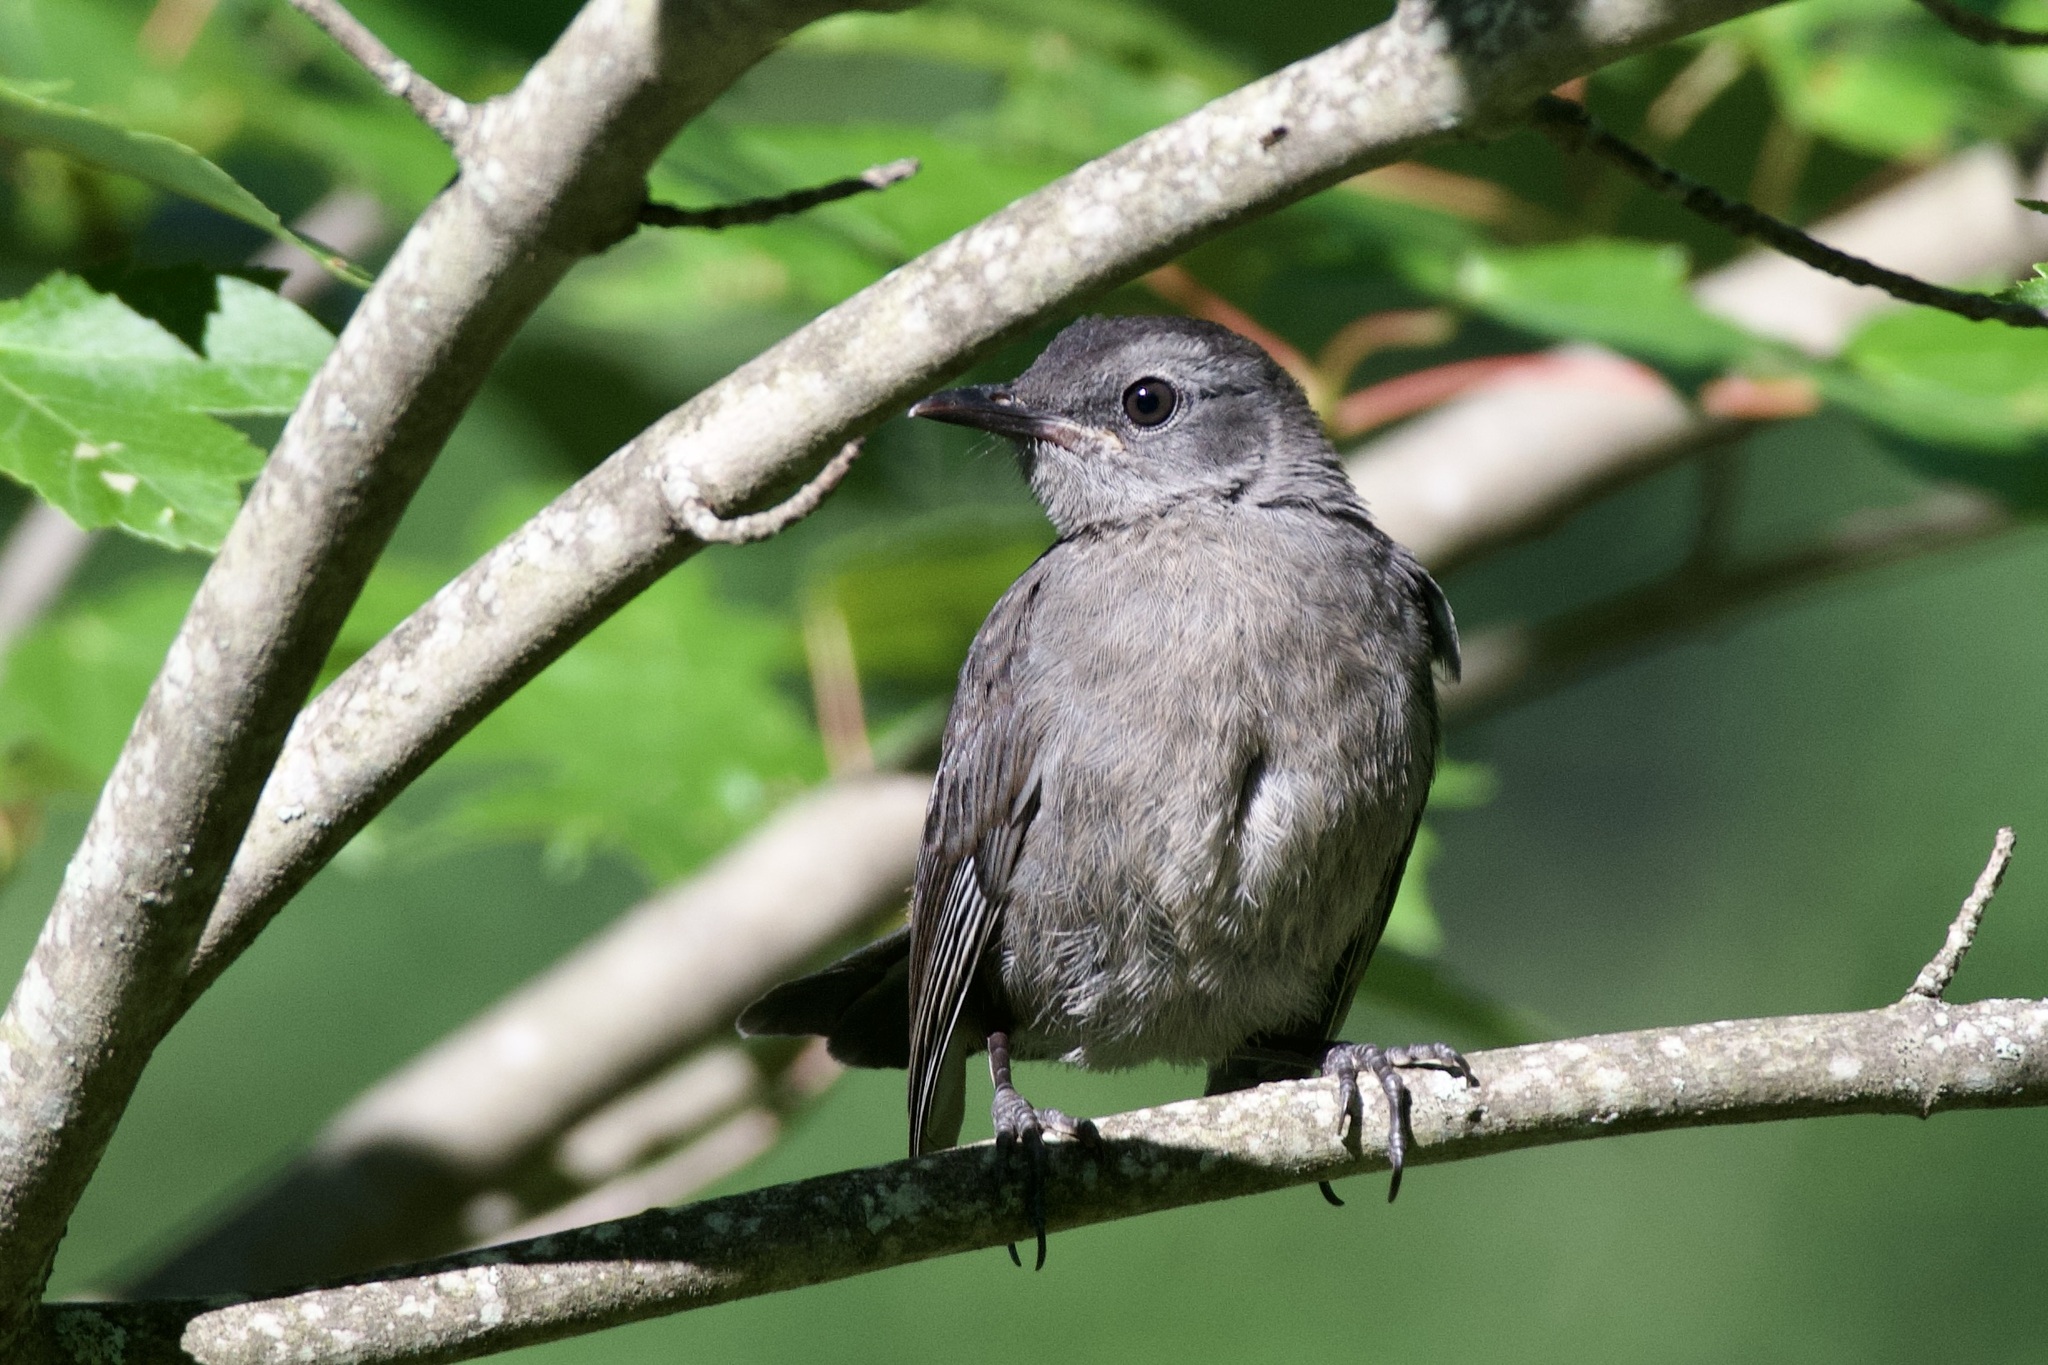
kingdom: Animalia
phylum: Chordata
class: Aves
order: Passeriformes
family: Mimidae
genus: Dumetella
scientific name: Dumetella carolinensis
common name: Gray catbird
